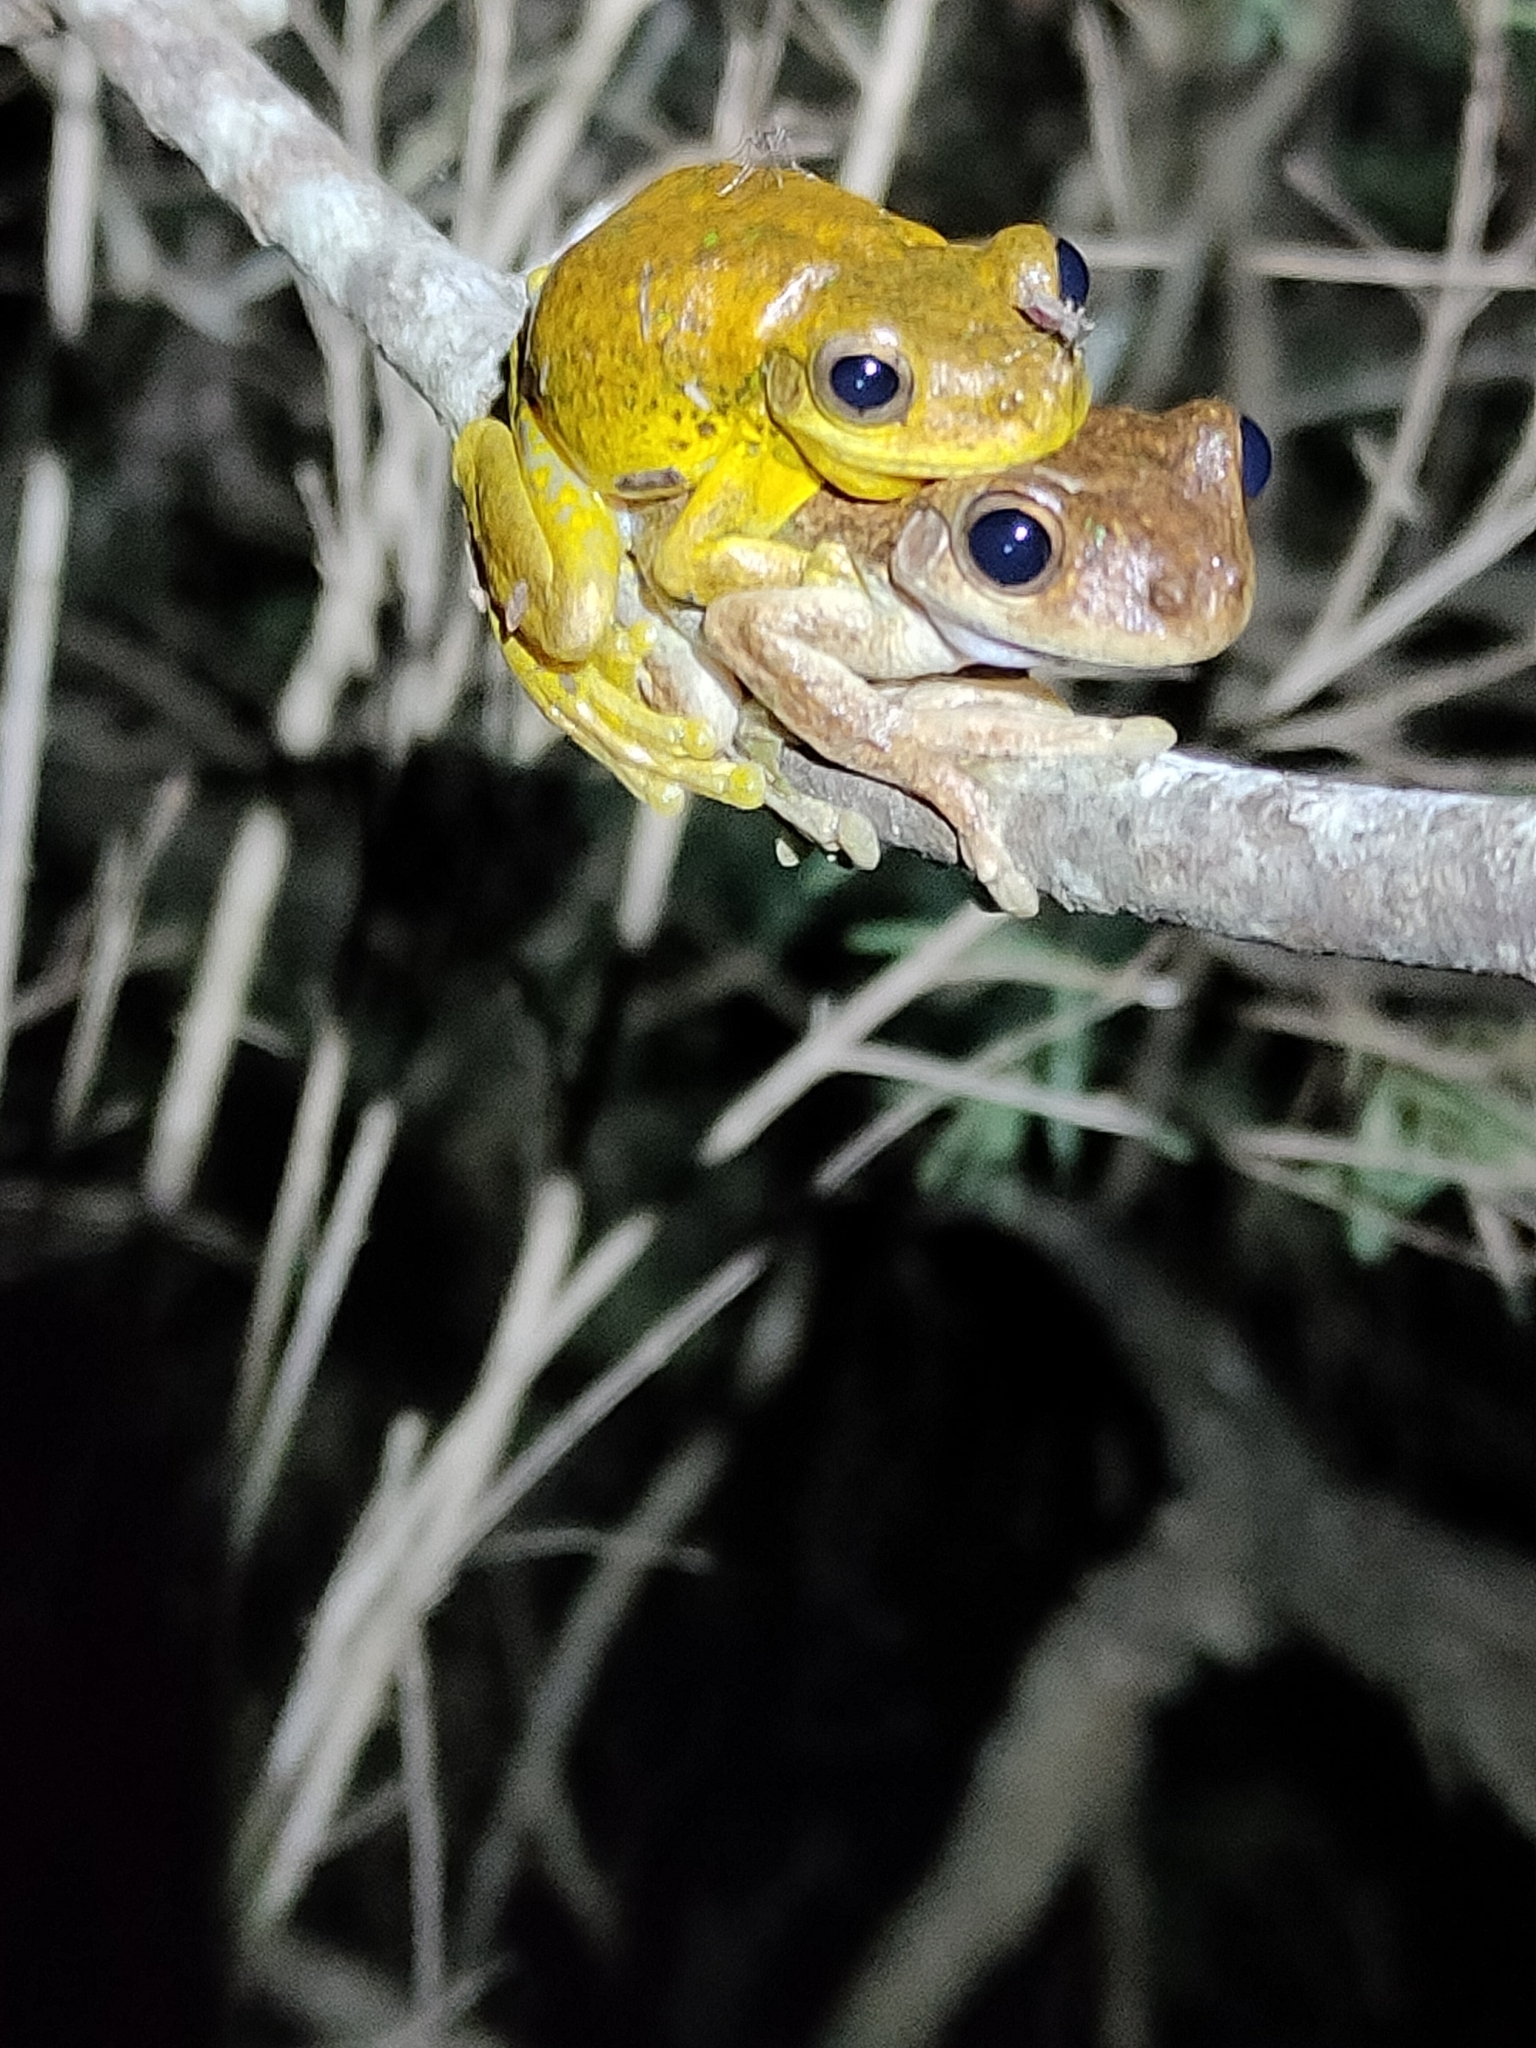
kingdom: Animalia
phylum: Chordata
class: Amphibia
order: Anura
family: Pelodryadidae
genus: Litoria
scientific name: Litoria tyleri
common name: Laughing tree frog
